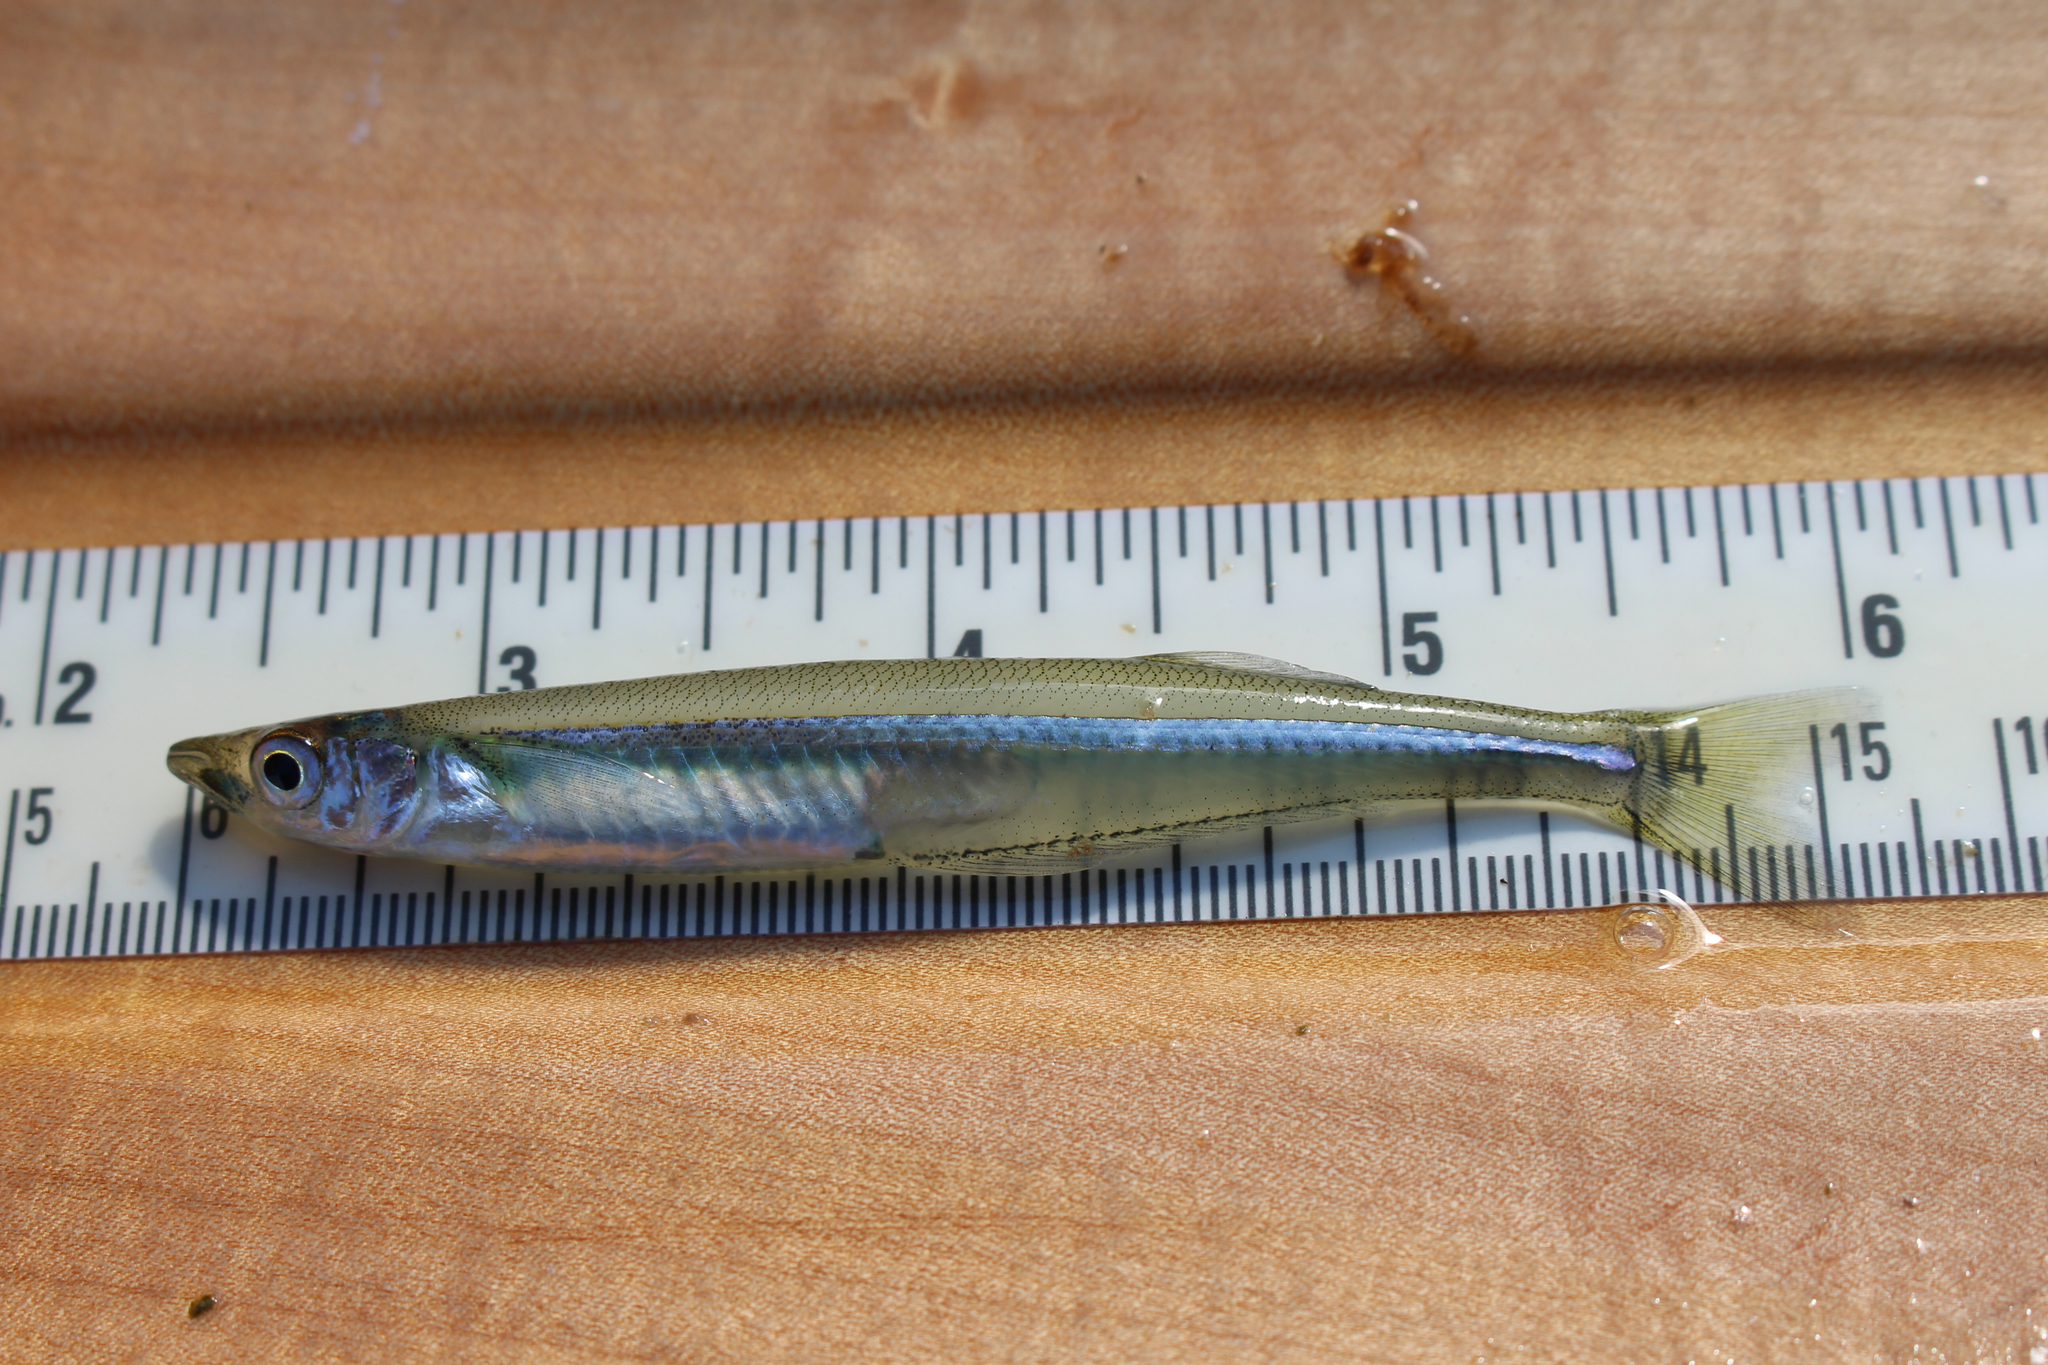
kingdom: Animalia
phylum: Chordata
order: Atheriniformes
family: Atherinopsidae
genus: Labidesthes
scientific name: Labidesthes sicculus
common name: Brook silverside
